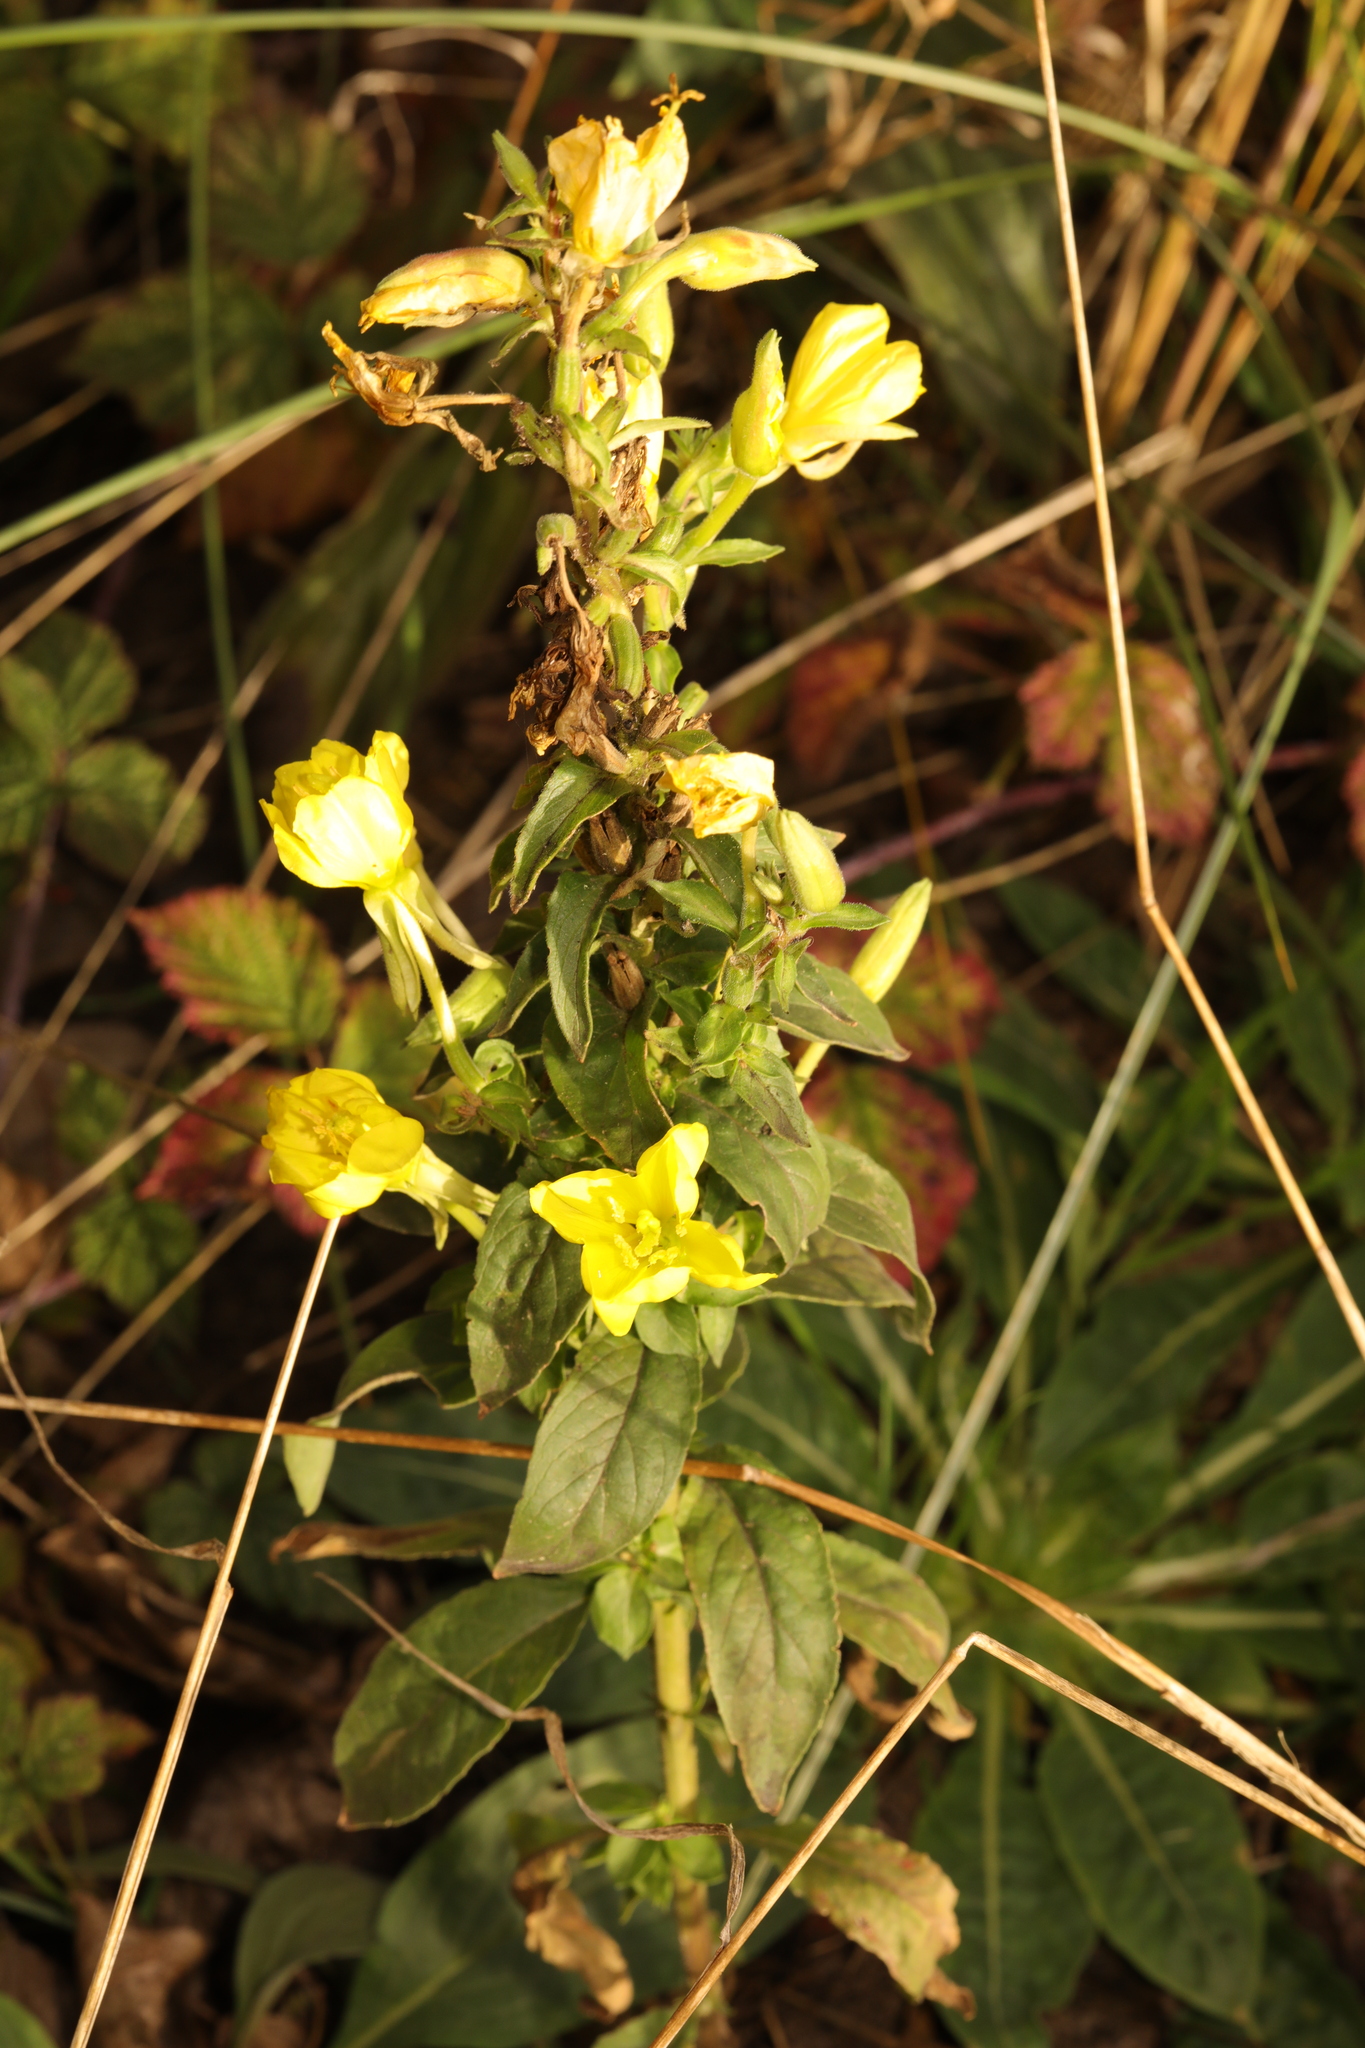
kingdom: Plantae
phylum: Tracheophyta
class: Magnoliopsida
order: Myrtales
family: Onagraceae
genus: Oenothera
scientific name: Oenothera biennis
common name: Common evening-primrose
